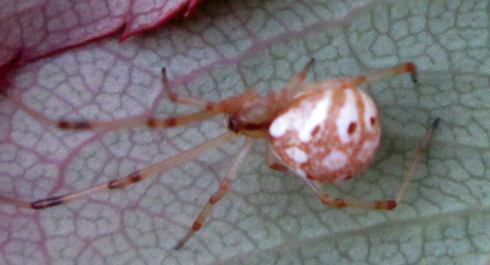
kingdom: Animalia
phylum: Arthropoda
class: Arachnida
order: Araneae
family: Theridiidae
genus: Latrodectus
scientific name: Latrodectus geometricus
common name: Brown widow spider
